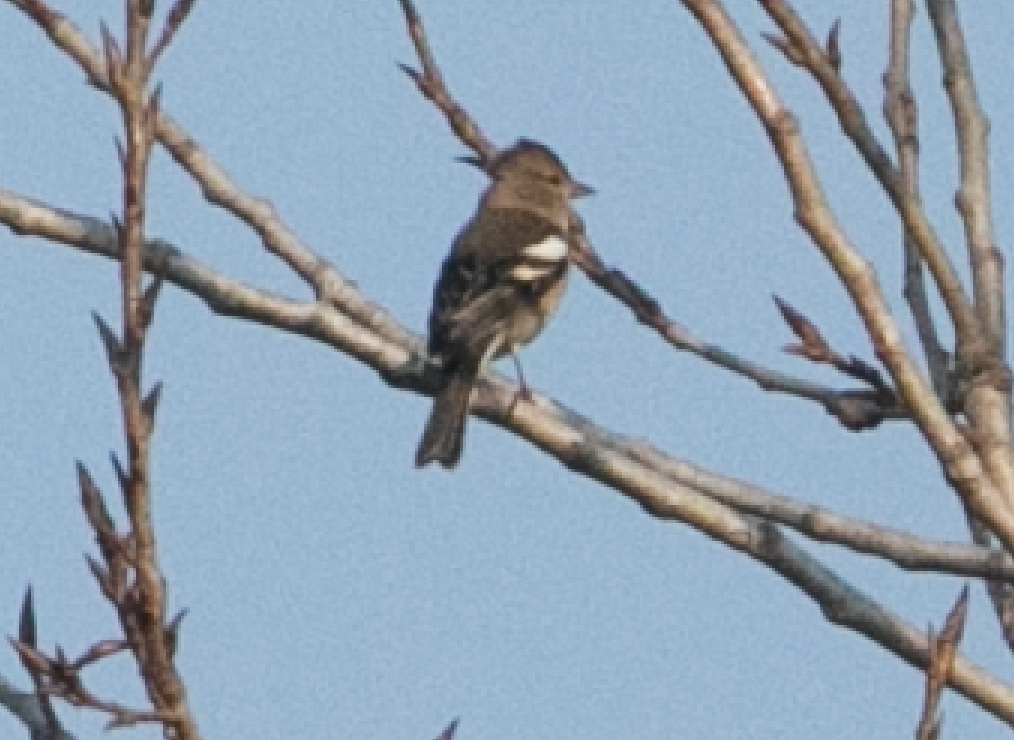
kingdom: Animalia
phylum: Chordata
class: Aves
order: Passeriformes
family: Fringillidae
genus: Fringilla
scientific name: Fringilla coelebs
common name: Common chaffinch
